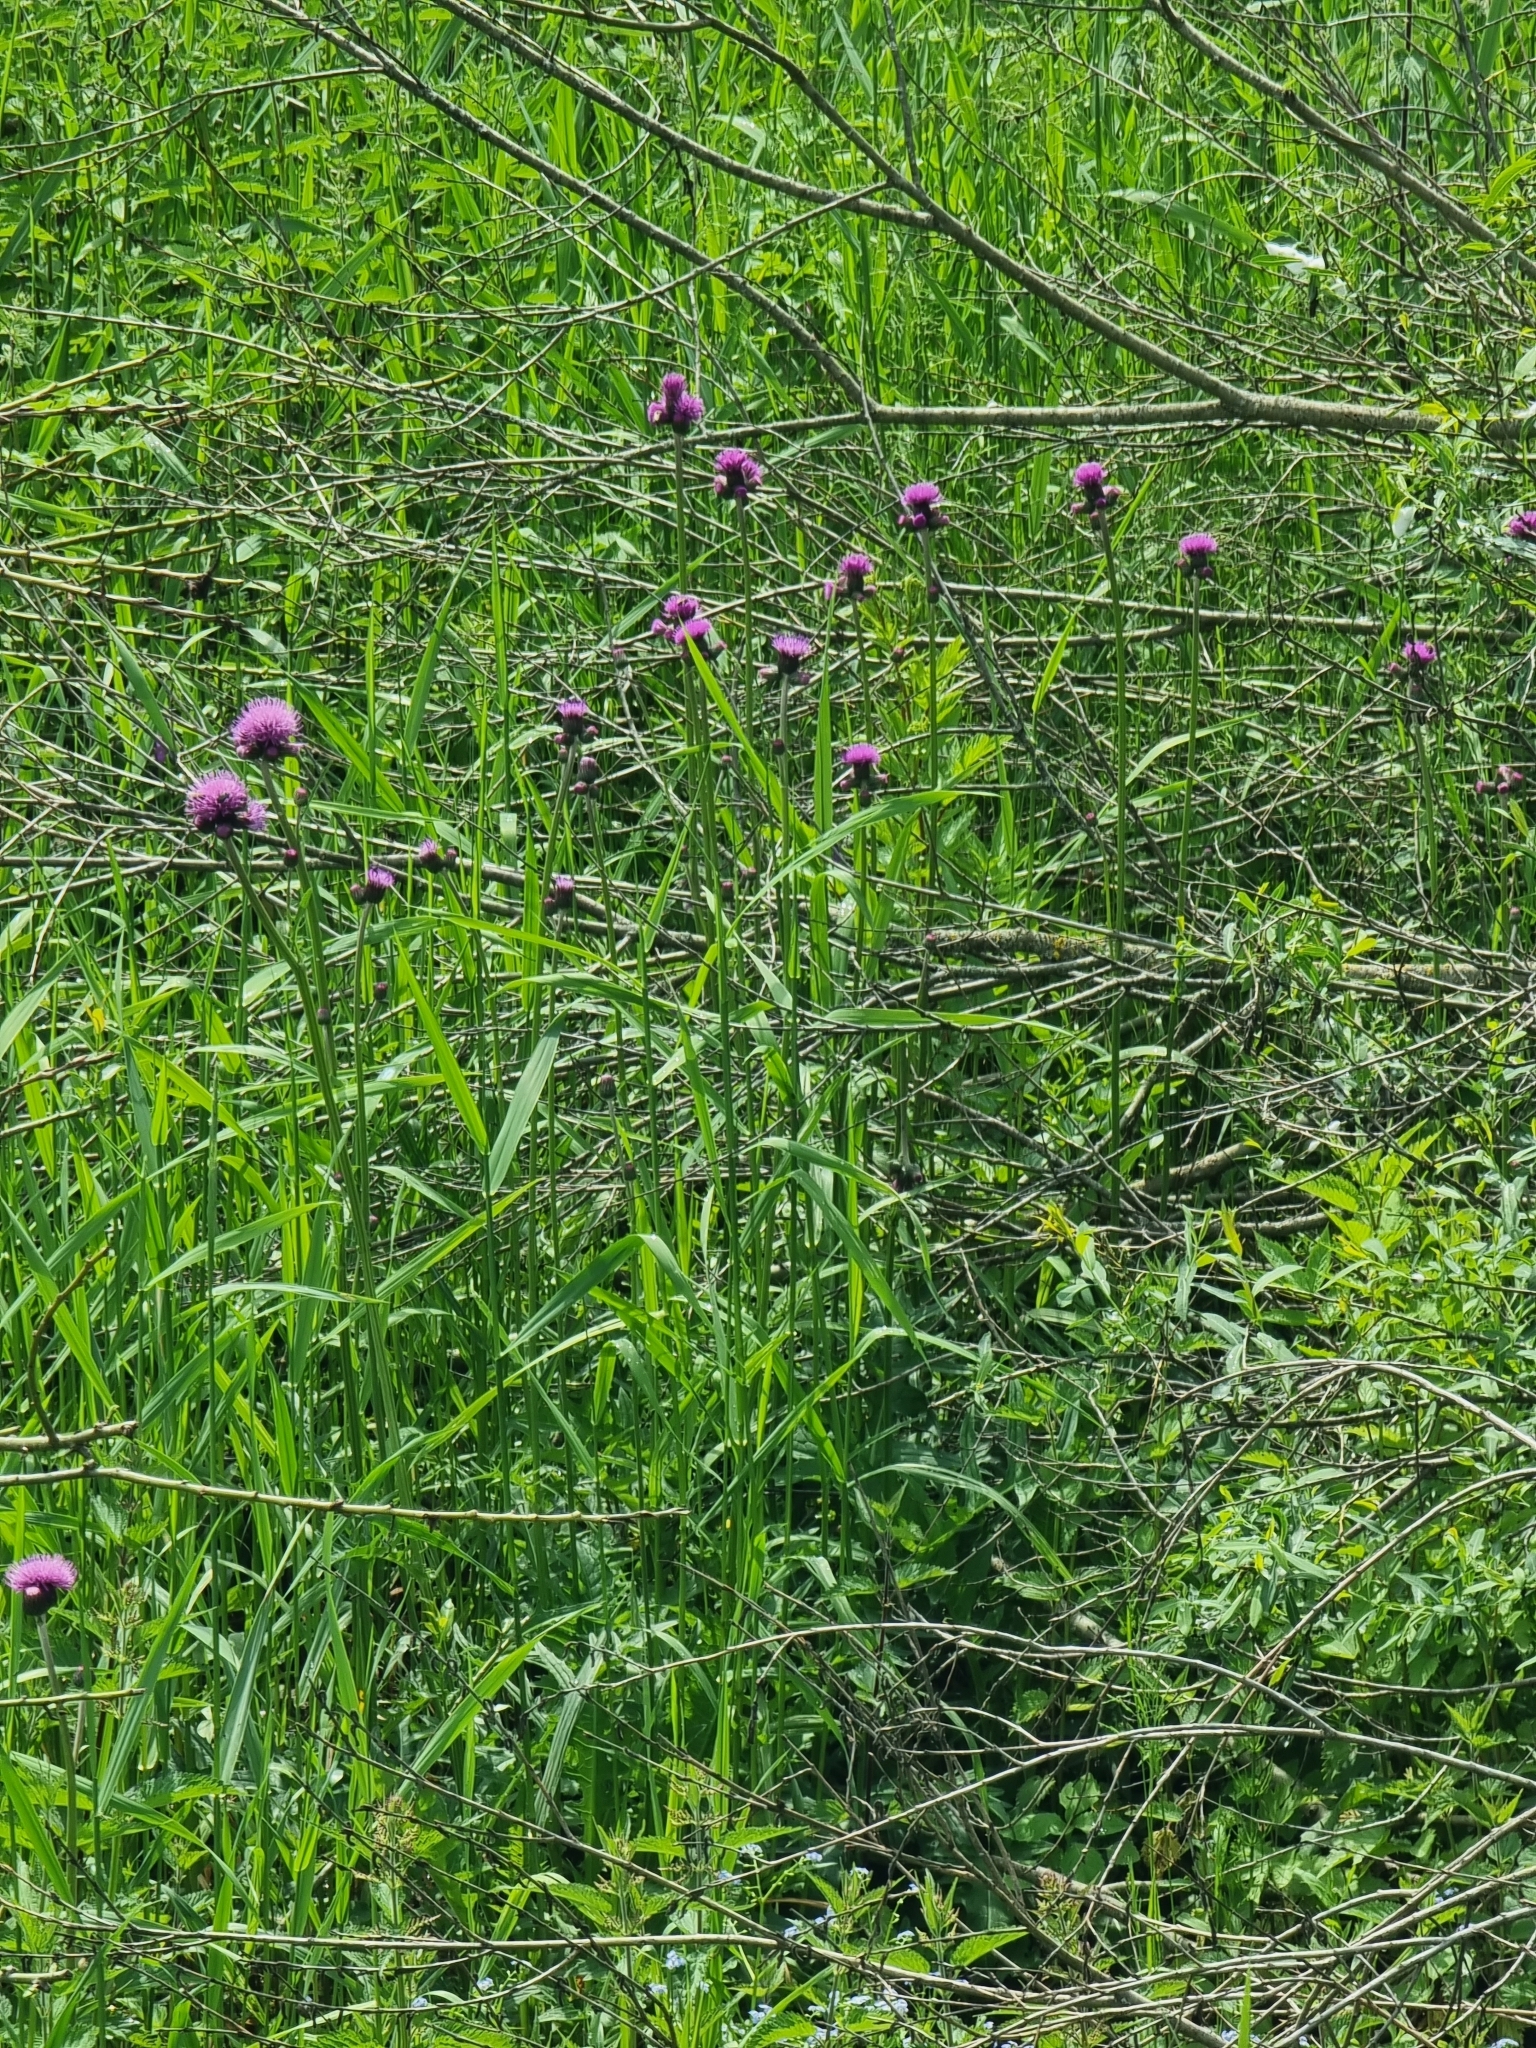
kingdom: Plantae
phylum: Tracheophyta
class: Magnoliopsida
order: Asterales
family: Asteraceae
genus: Cirsium
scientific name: Cirsium rivulare
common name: Brook thistle
